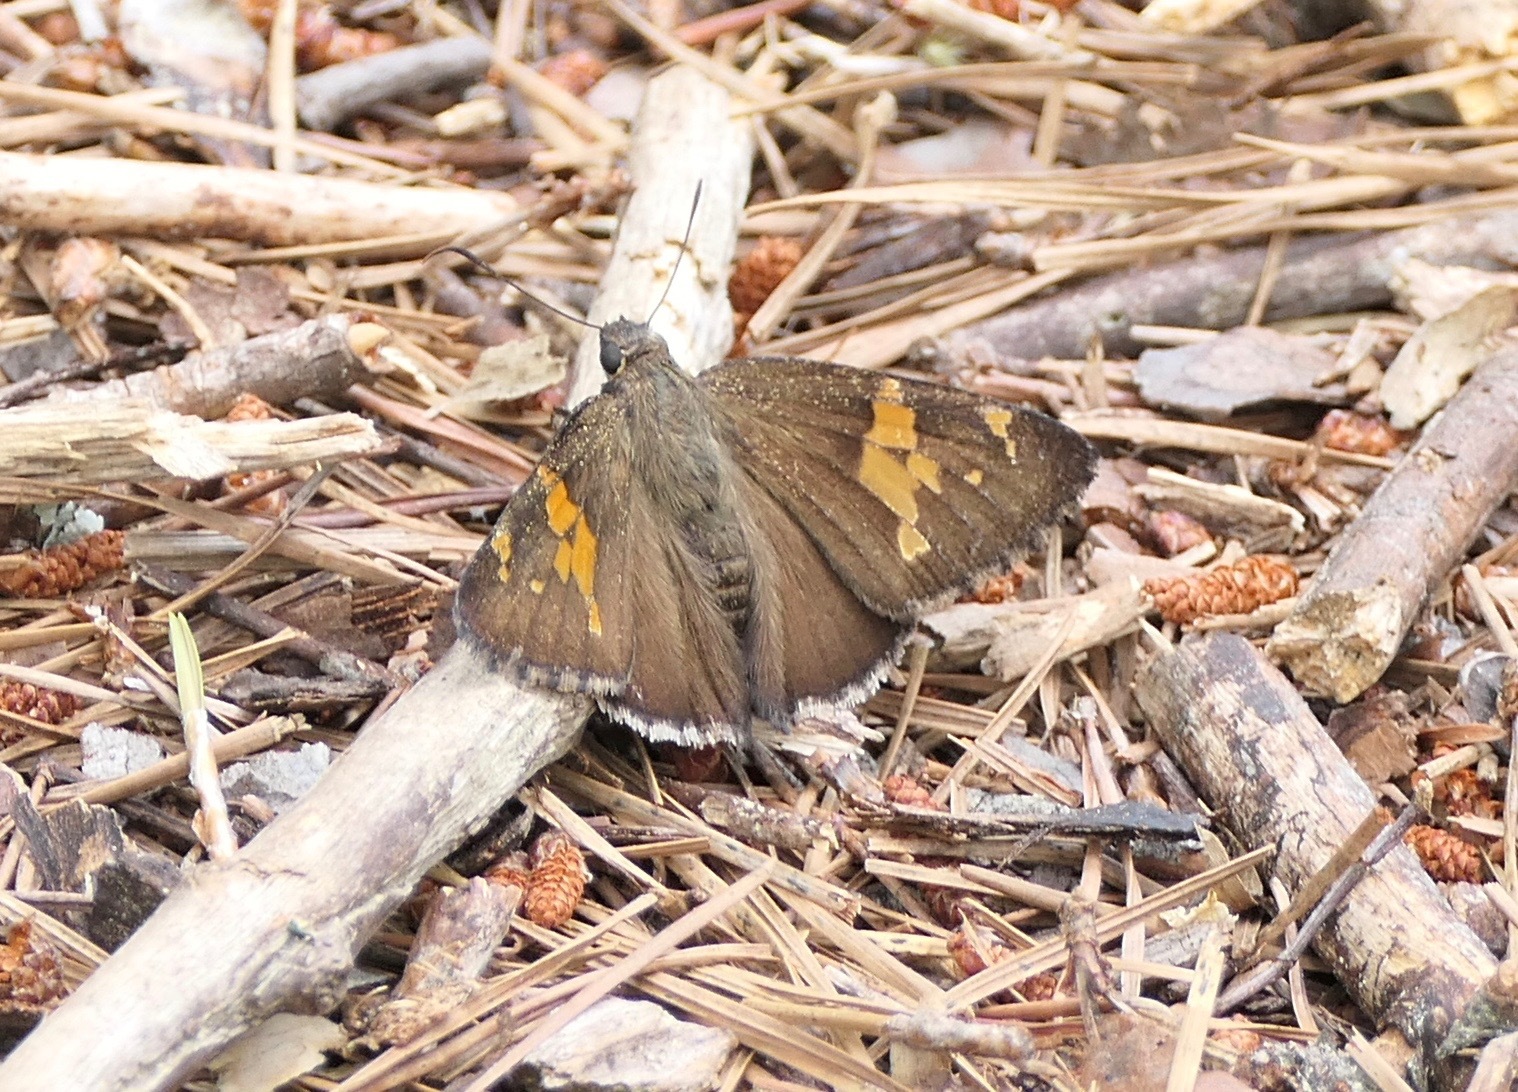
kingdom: Animalia
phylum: Arthropoda
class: Insecta
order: Lepidoptera
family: Hesperiidae
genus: Thorybes
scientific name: Thorybes lyciades
